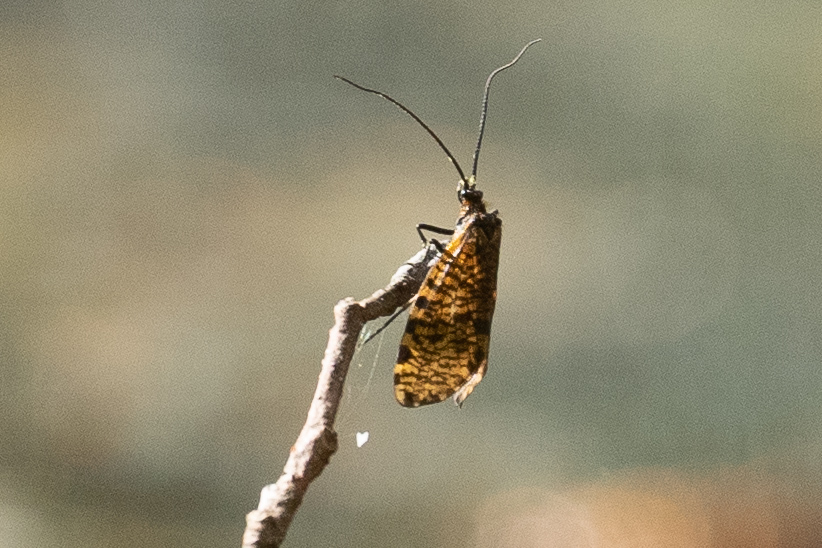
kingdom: Animalia
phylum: Arthropoda
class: Insecta
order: Trichoptera
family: Phryganeidae
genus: Oligostomis
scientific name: Oligostomis reticulata
